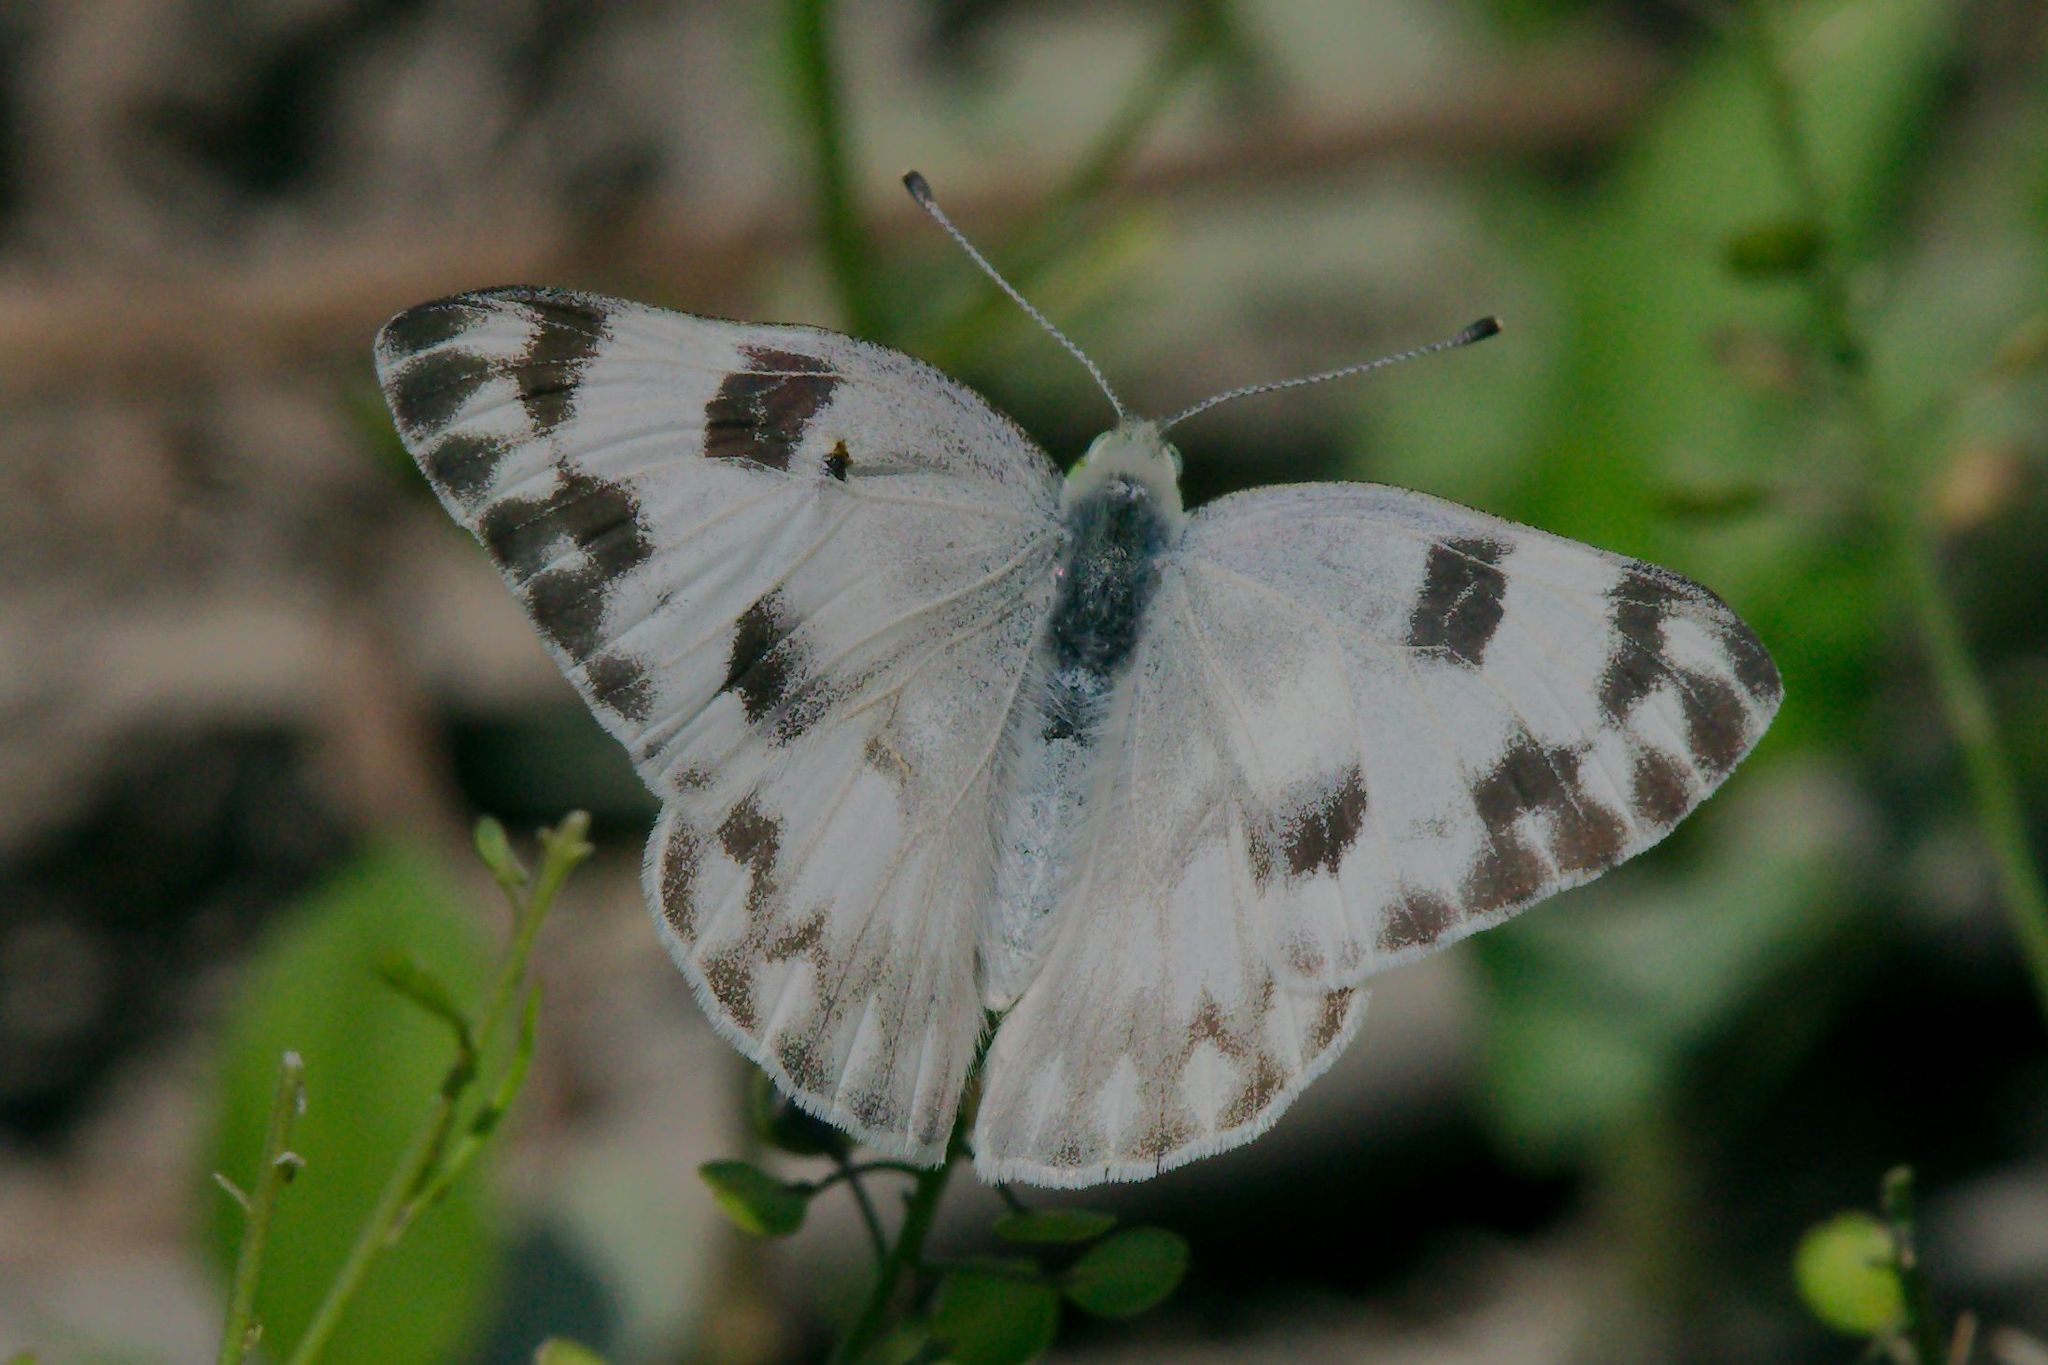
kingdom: Animalia
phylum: Arthropoda
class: Insecta
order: Lepidoptera
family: Pieridae
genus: Pontia
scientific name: Pontia protodice
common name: Checkered white
